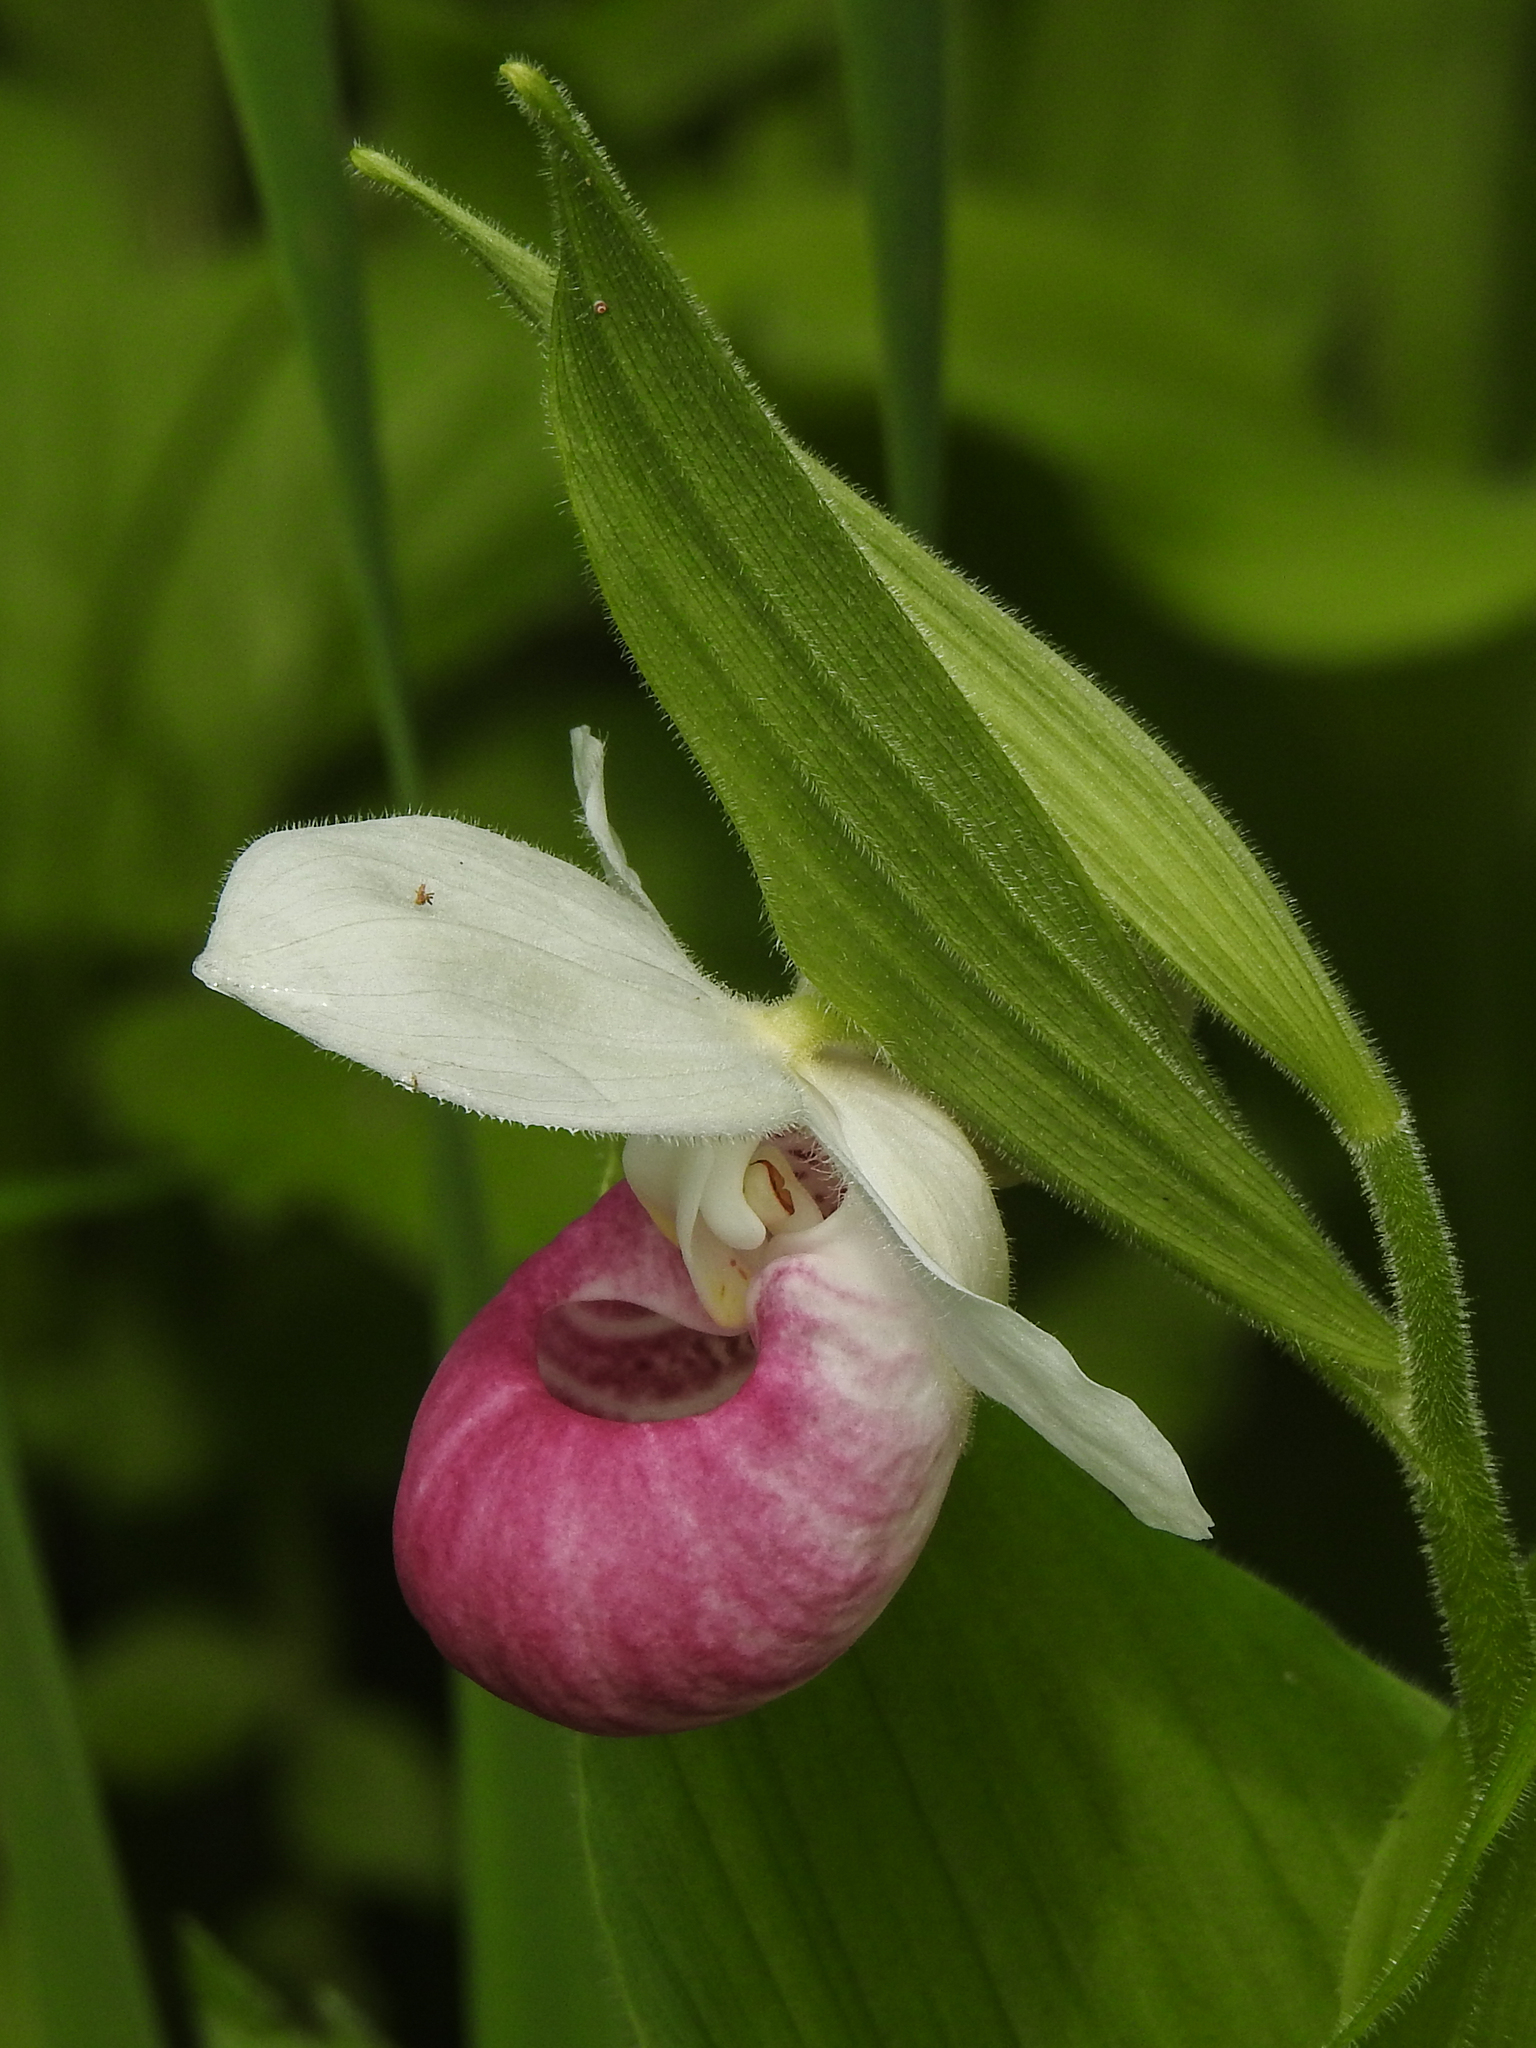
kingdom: Plantae
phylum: Tracheophyta
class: Liliopsida
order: Asparagales
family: Orchidaceae
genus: Cypripedium
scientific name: Cypripedium reginae
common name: Queen lady's-slipper
